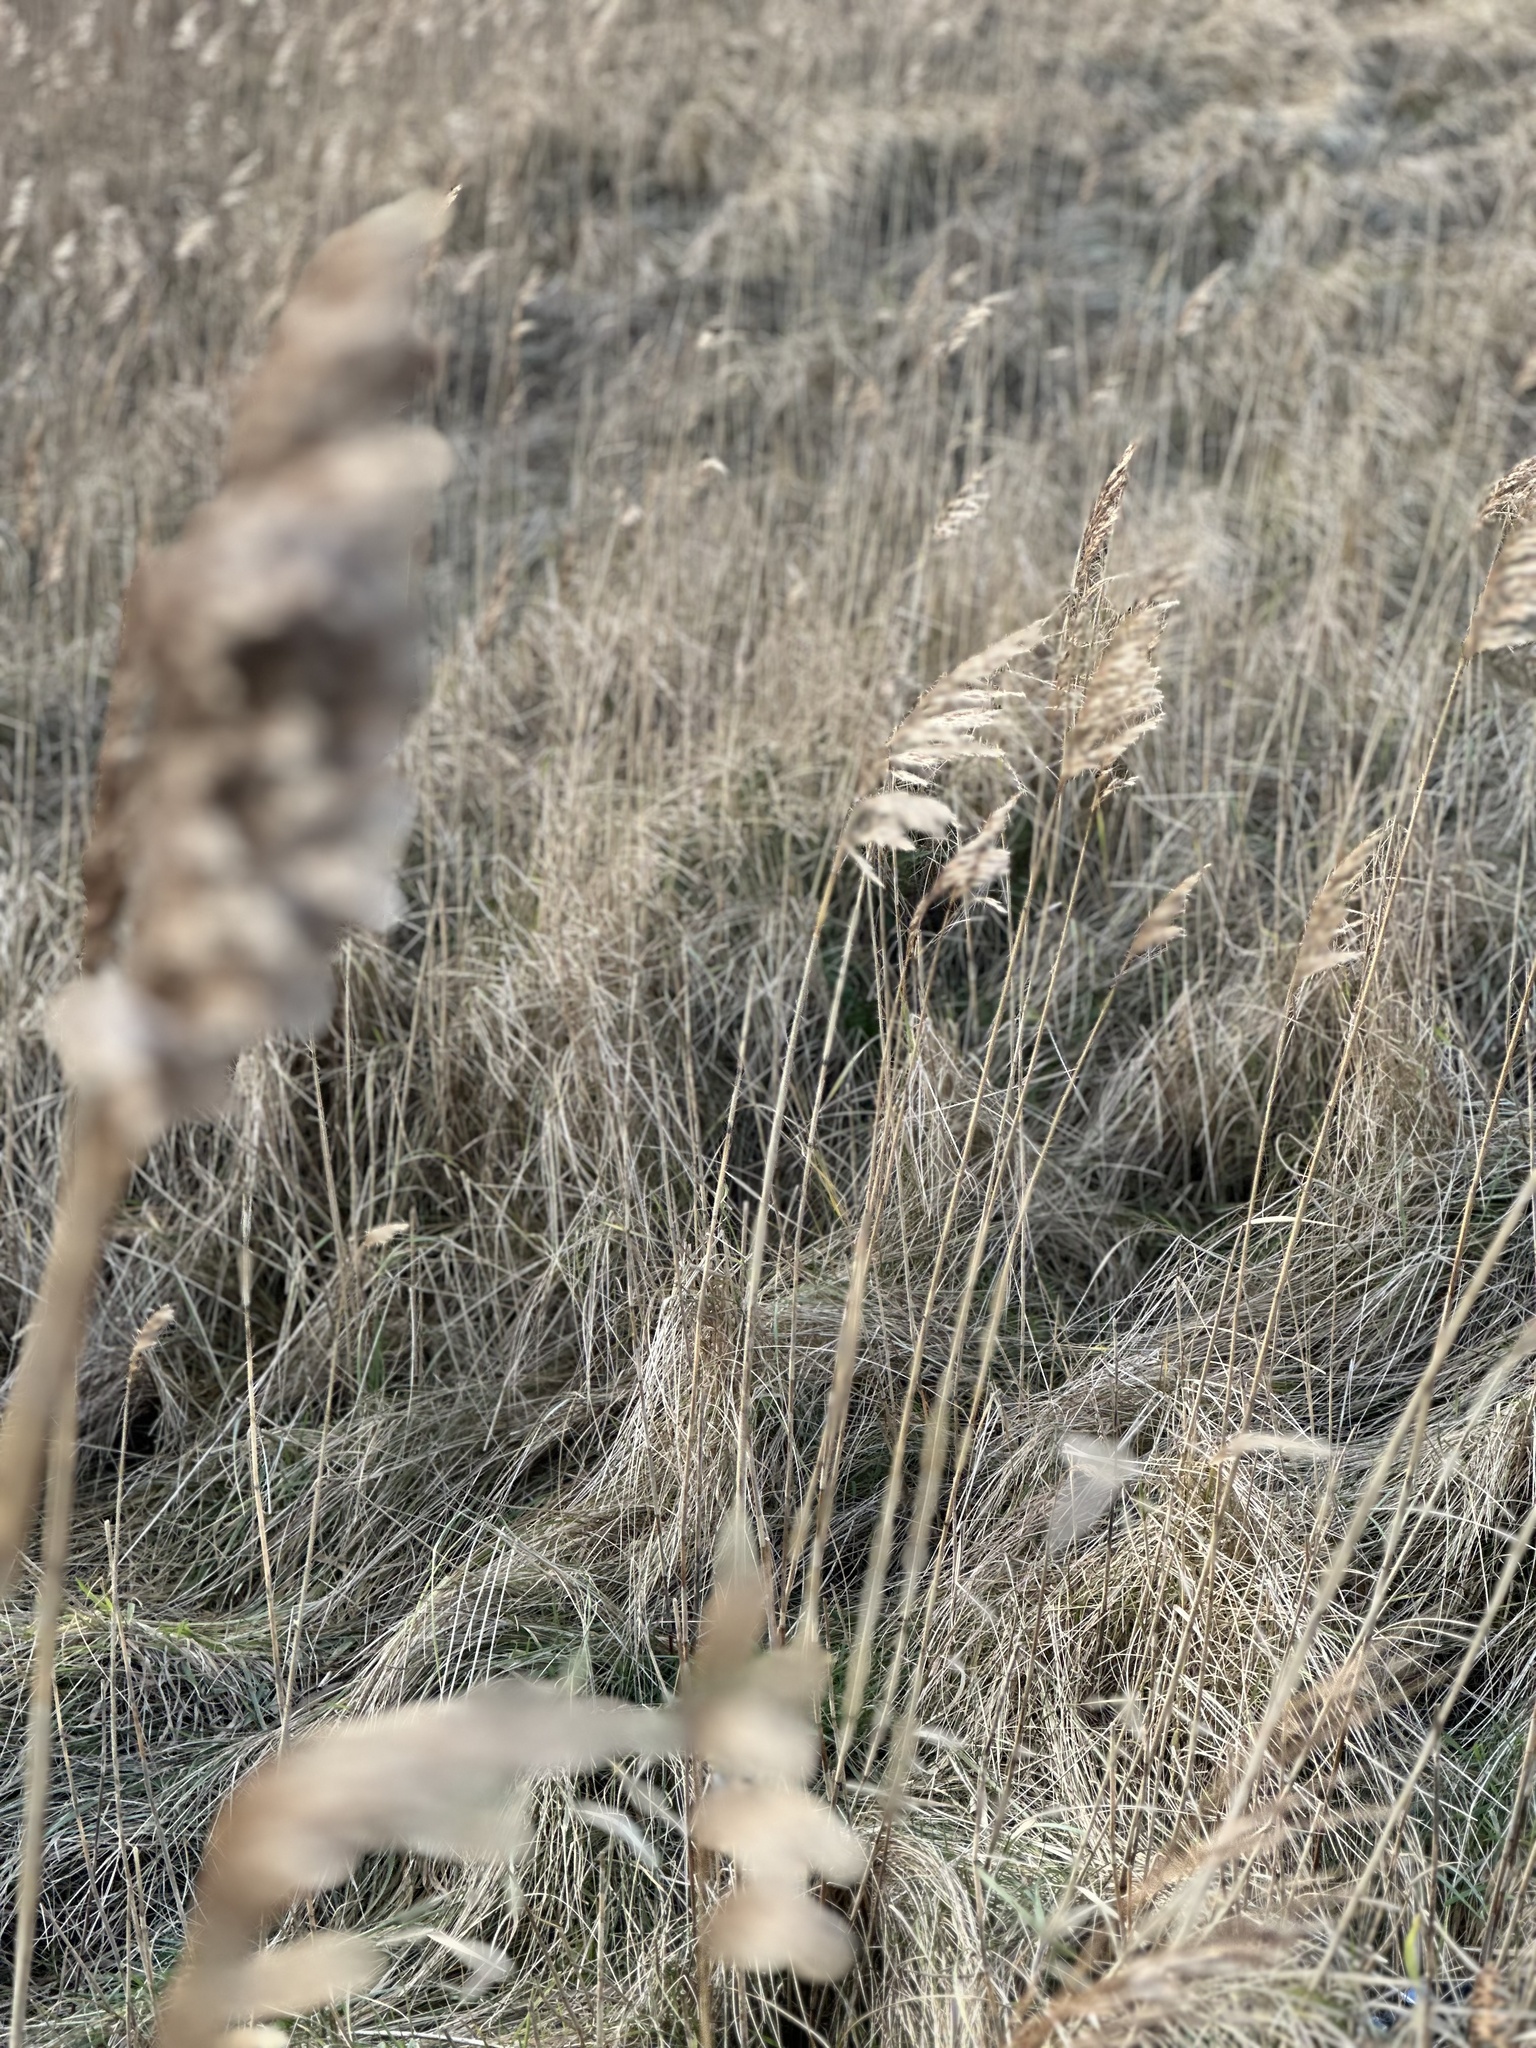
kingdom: Plantae
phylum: Tracheophyta
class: Liliopsida
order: Poales
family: Poaceae
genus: Phragmites
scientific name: Phragmites australis
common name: Common reed
